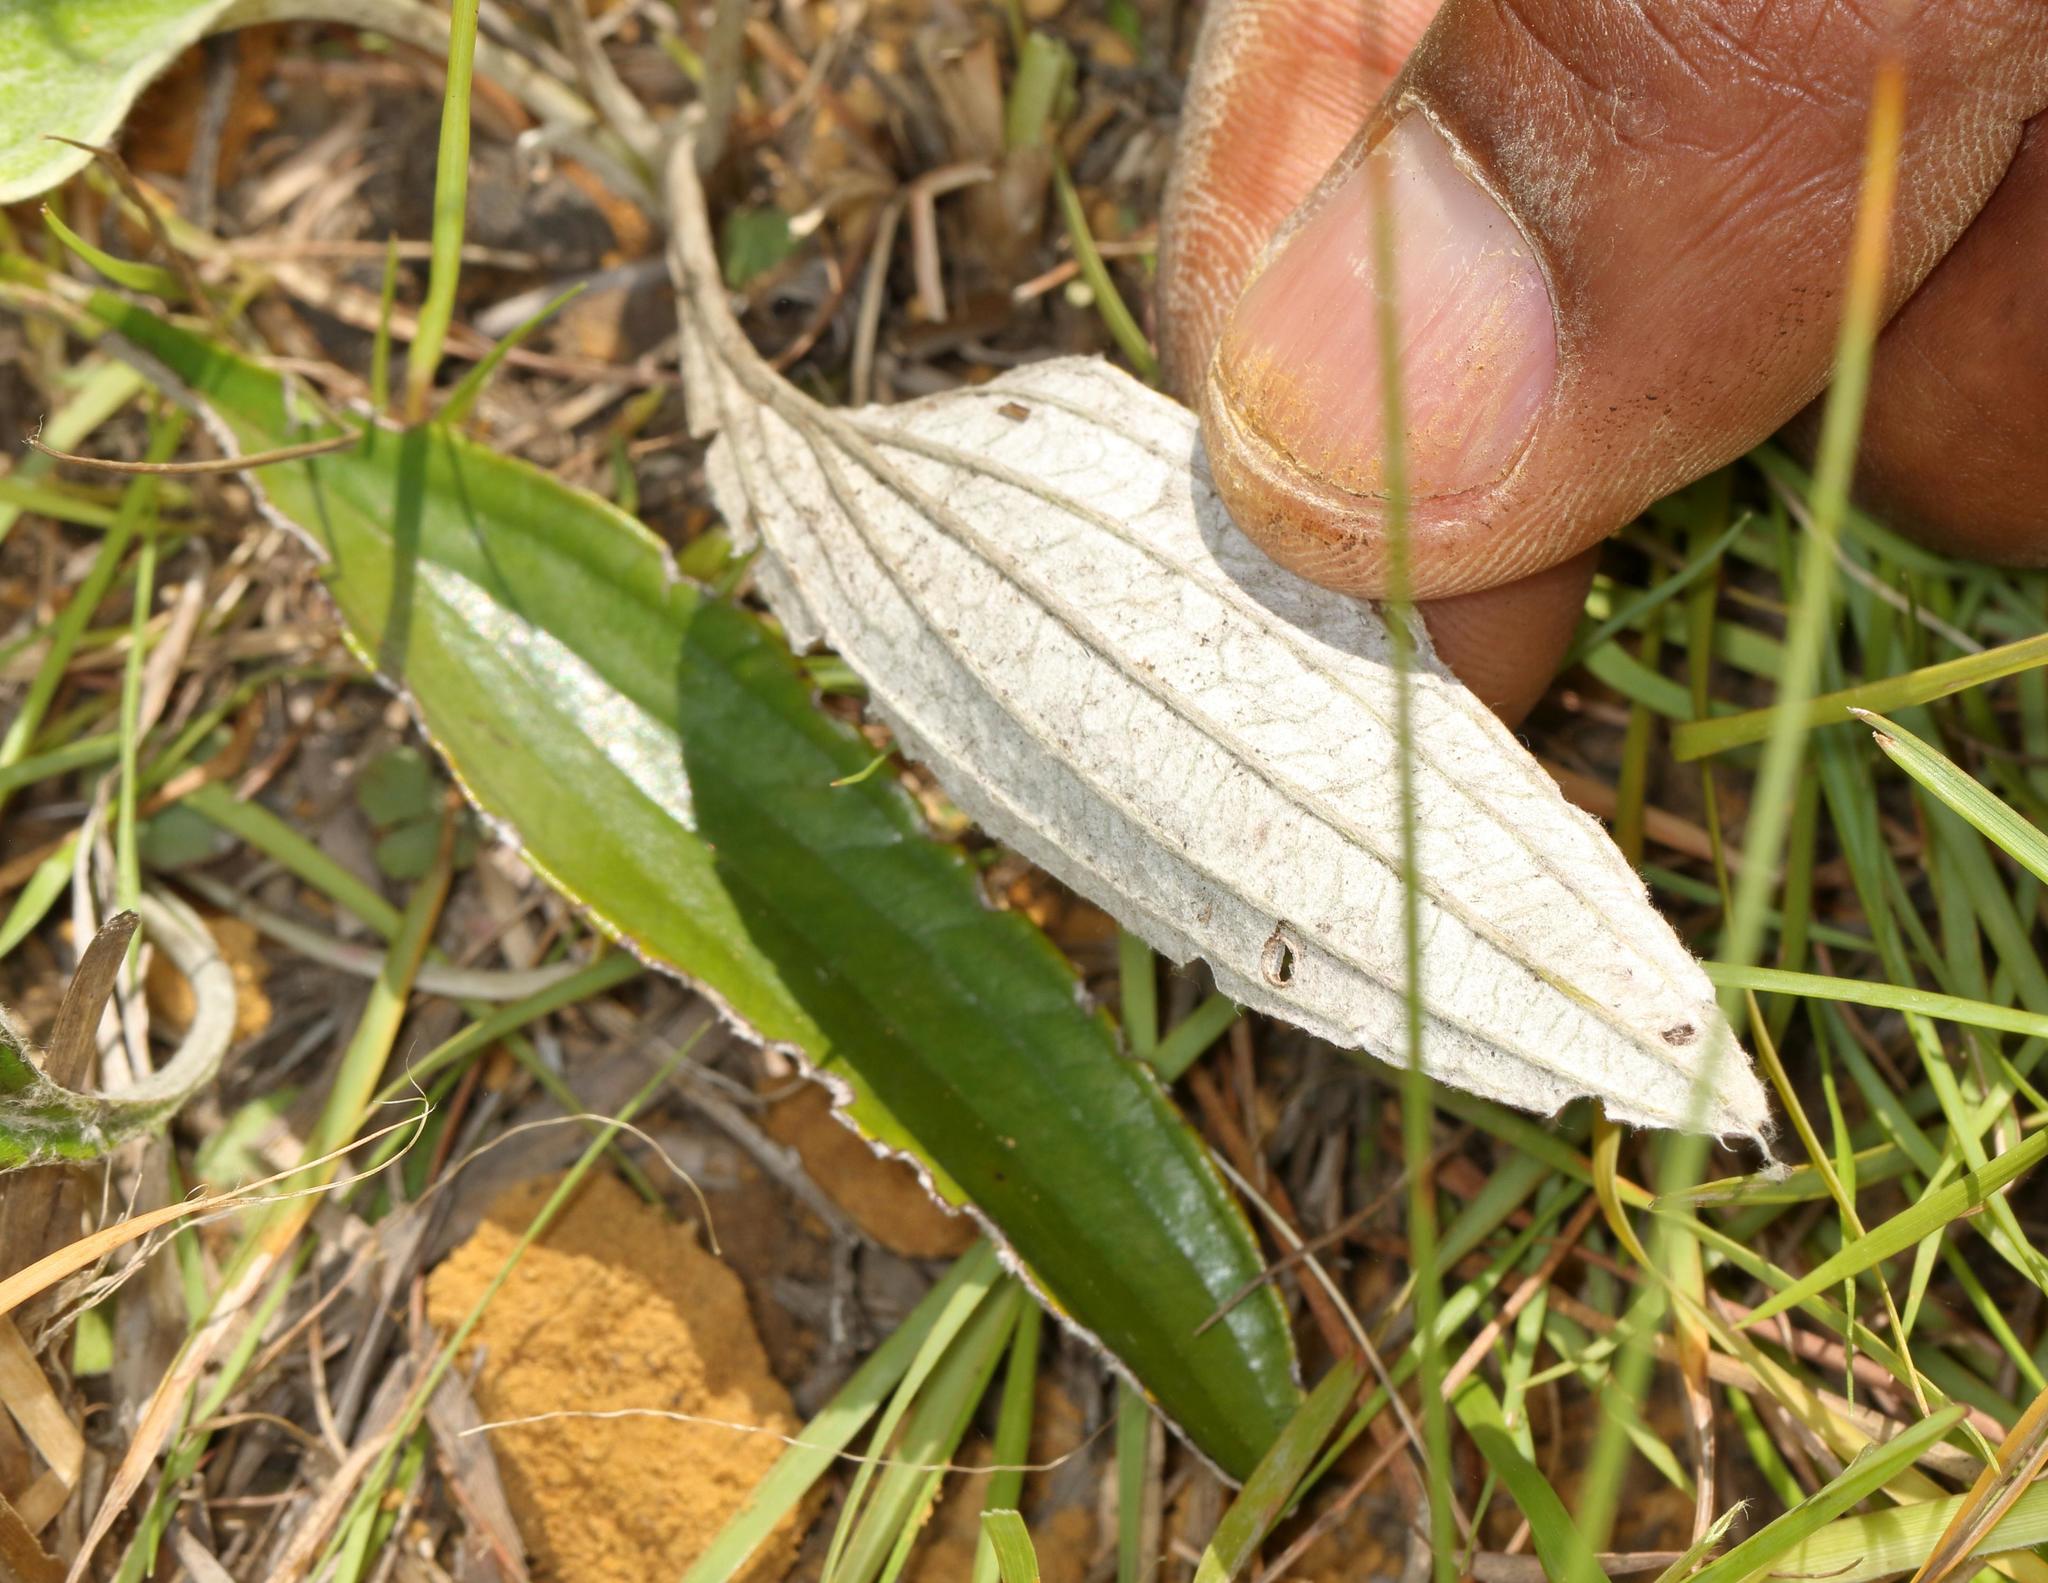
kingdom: Plantae
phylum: Tracheophyta
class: Magnoliopsida
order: Asterales
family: Asteraceae
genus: Helichrysum
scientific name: Helichrysum pallidum
